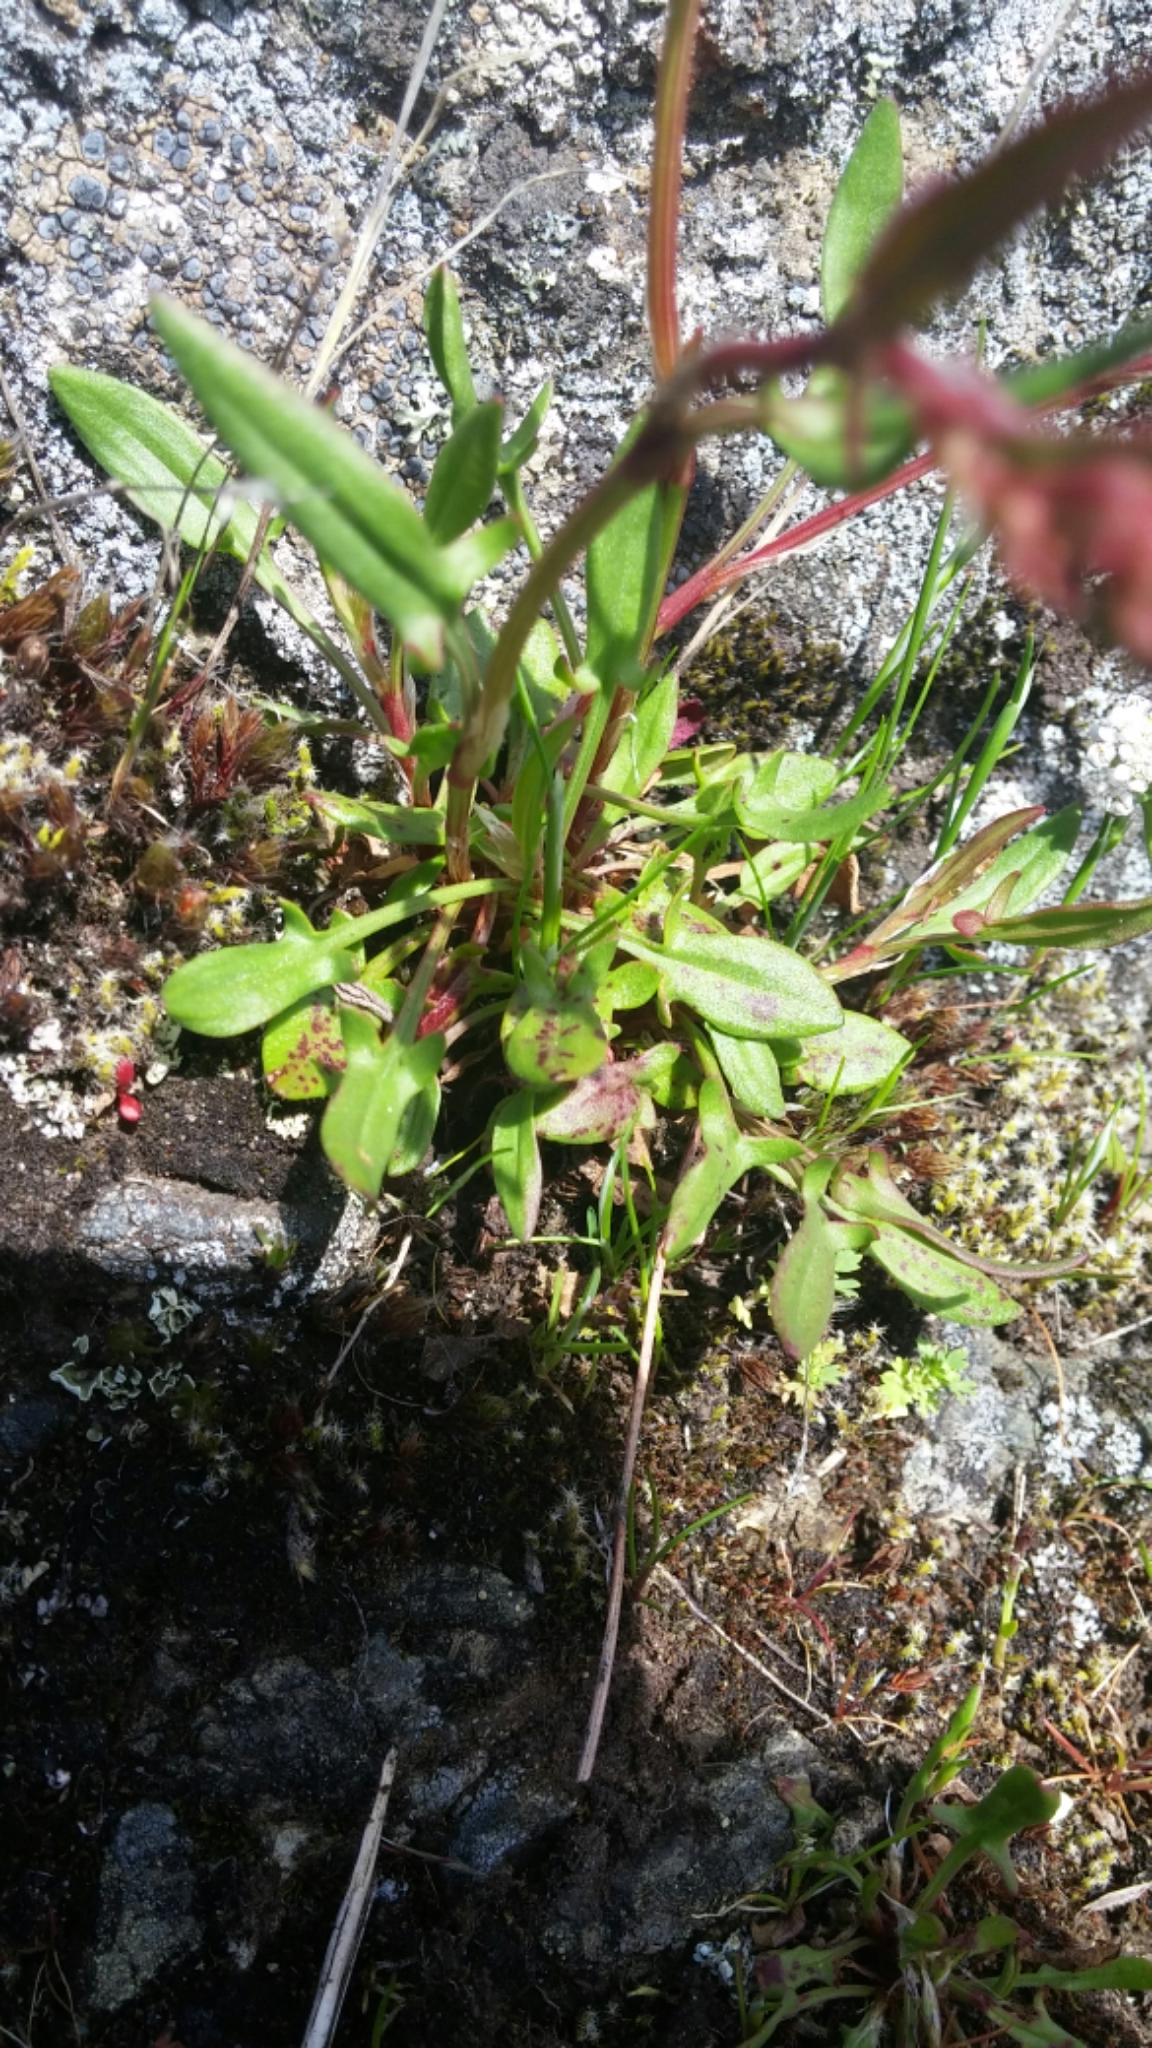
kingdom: Plantae
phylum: Tracheophyta
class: Magnoliopsida
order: Caryophyllales
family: Polygonaceae
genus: Rumex
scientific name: Rumex acetosella
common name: Common sheep sorrel
